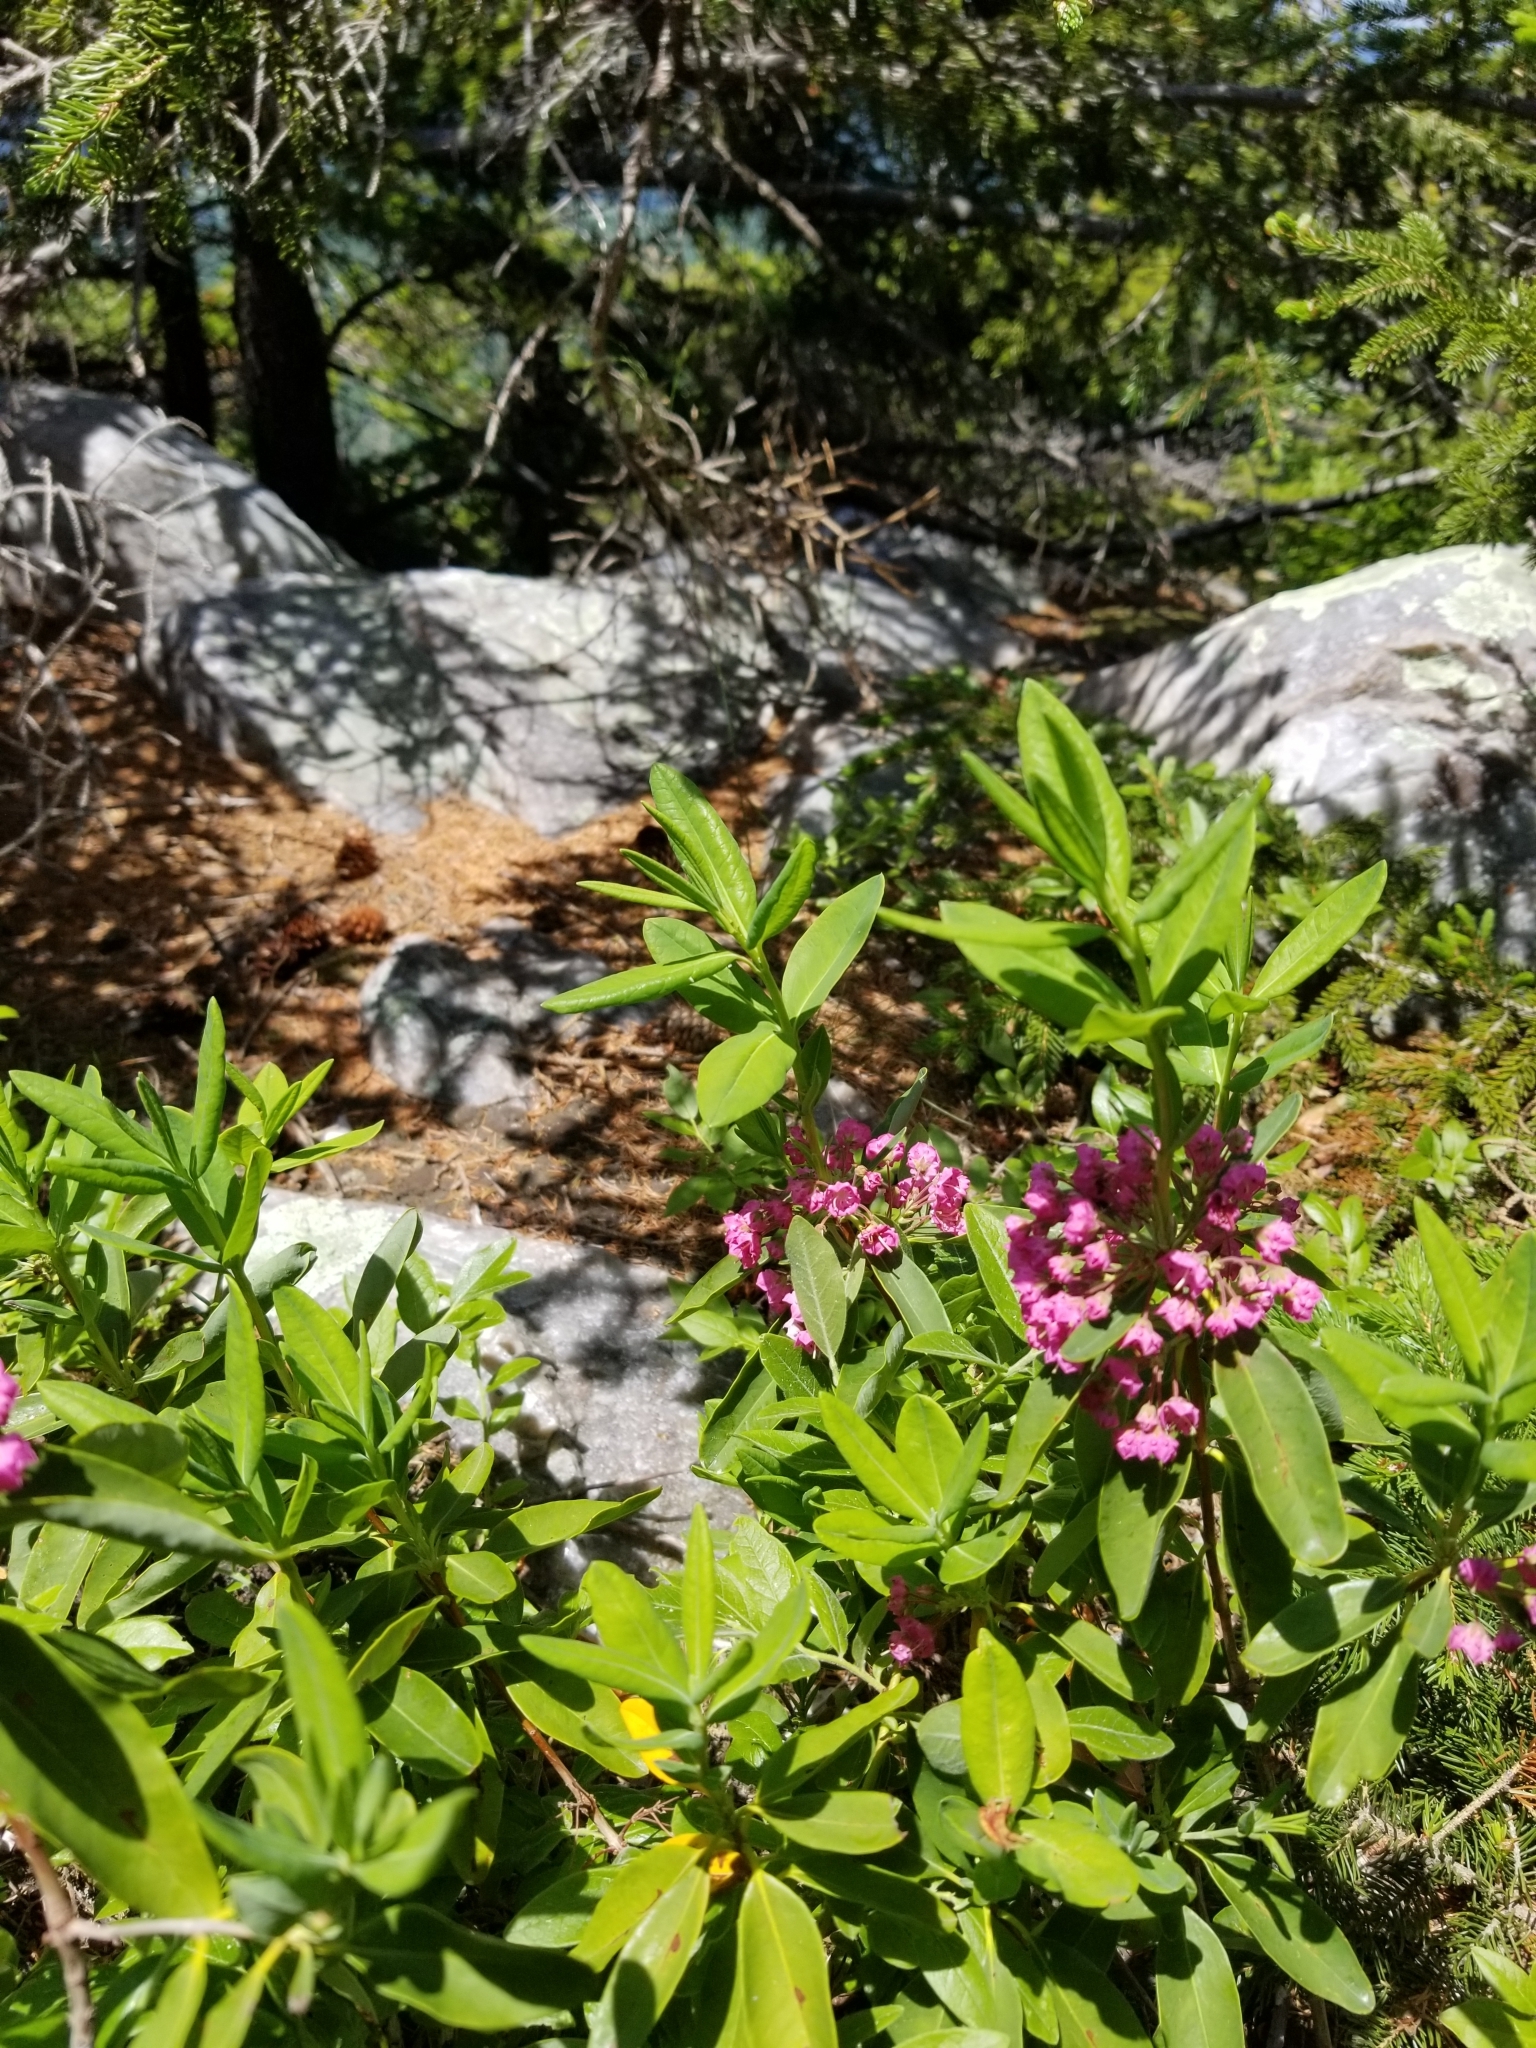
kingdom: Plantae
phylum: Tracheophyta
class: Magnoliopsida
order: Ericales
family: Ericaceae
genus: Kalmia
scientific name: Kalmia angustifolia
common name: Sheep-laurel
